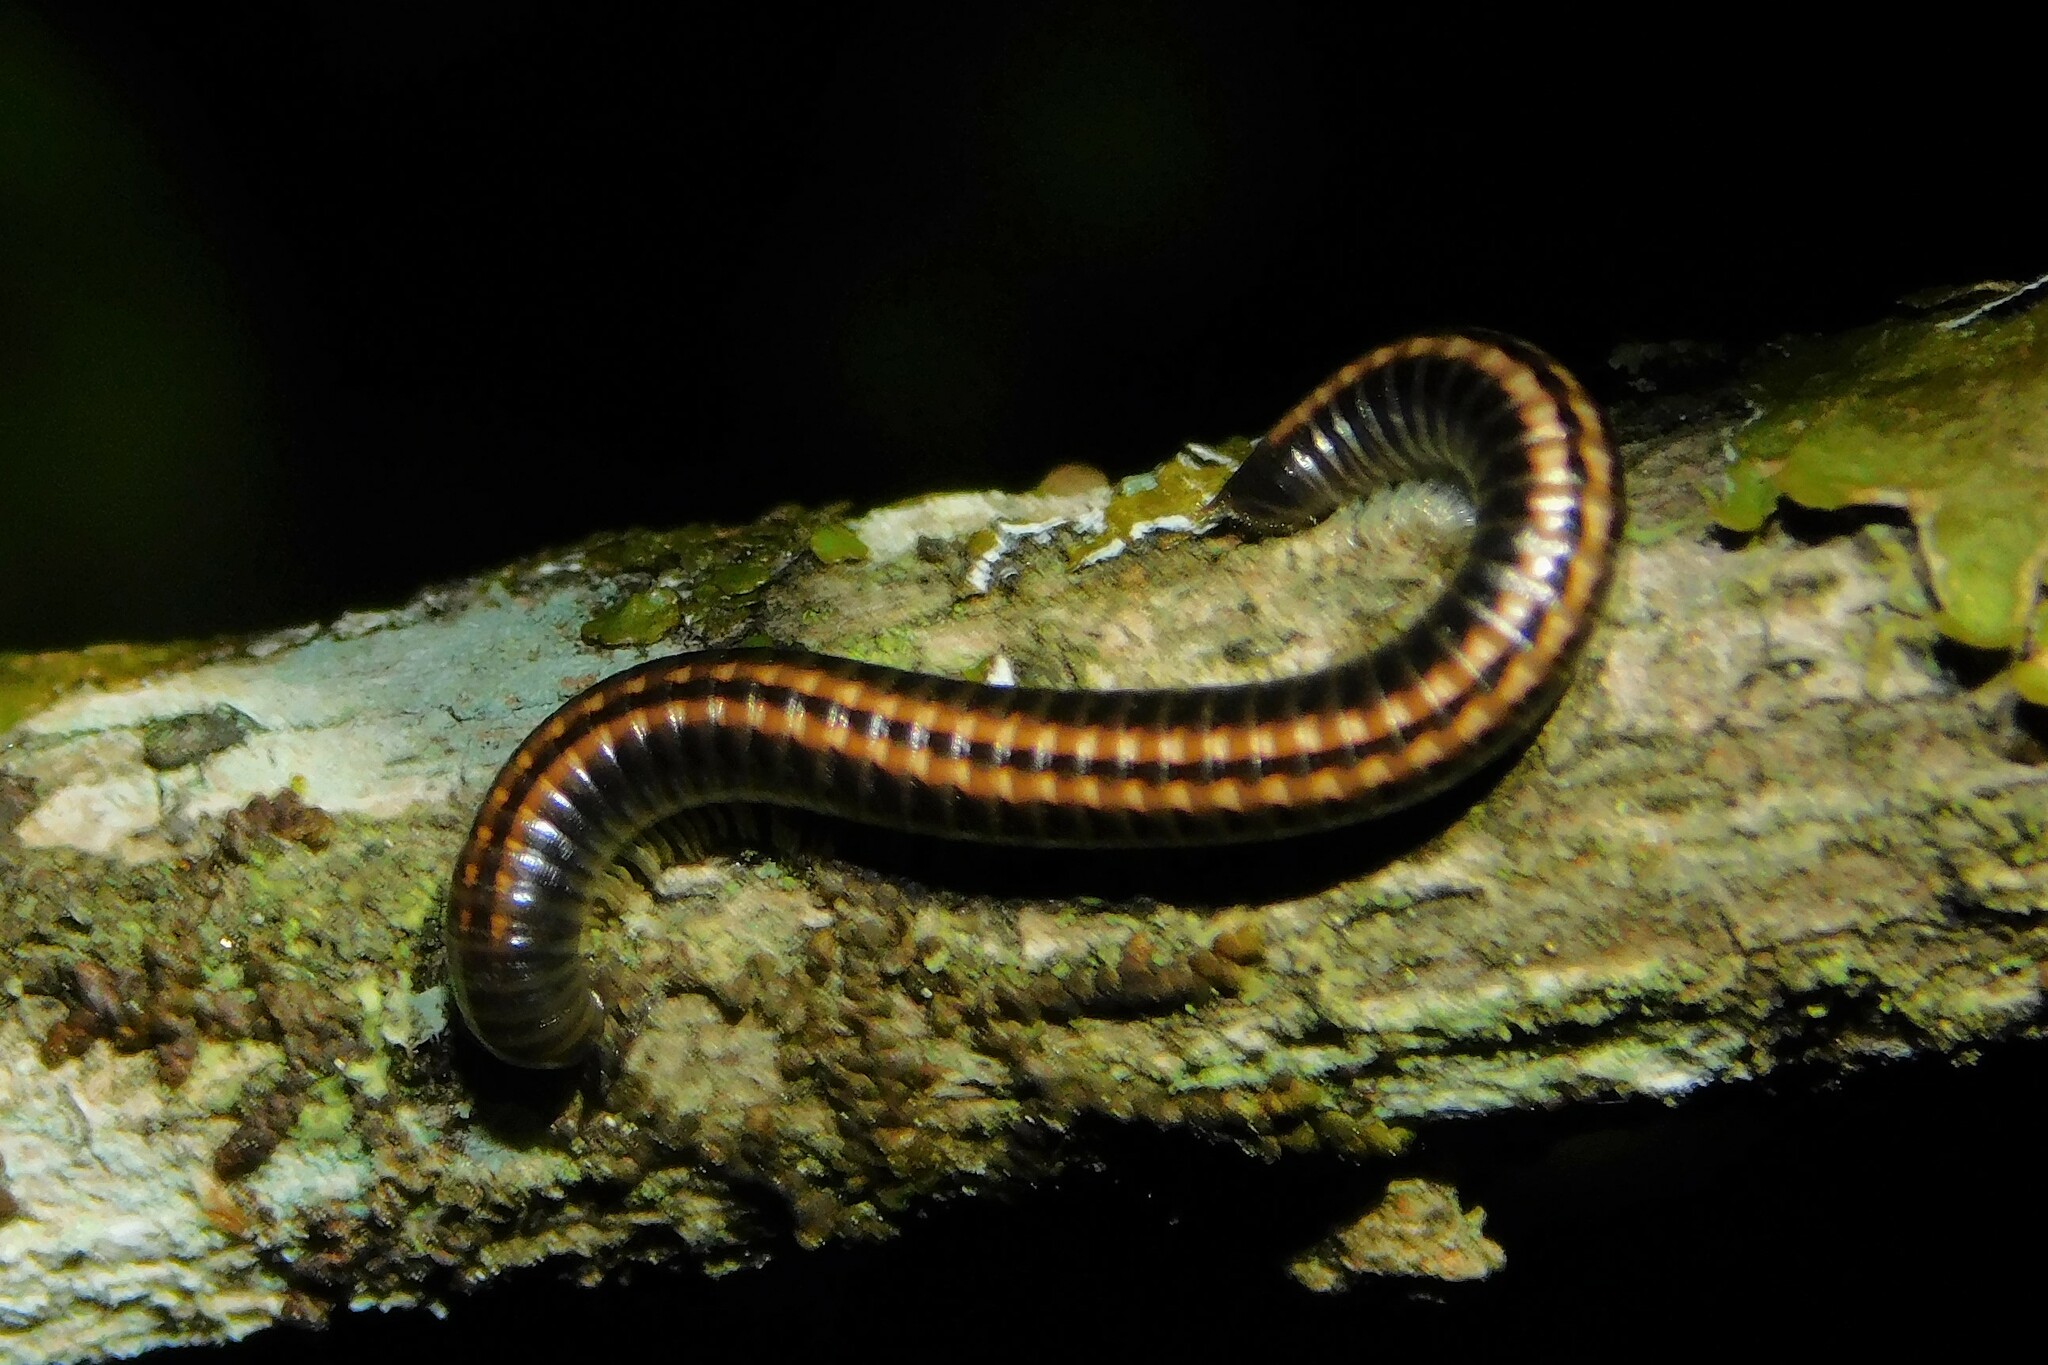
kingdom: Animalia
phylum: Arthropoda
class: Diplopoda
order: Julida
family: Julidae
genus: Ommatoiulus
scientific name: Ommatoiulus sabulosus
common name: Striped millipede
